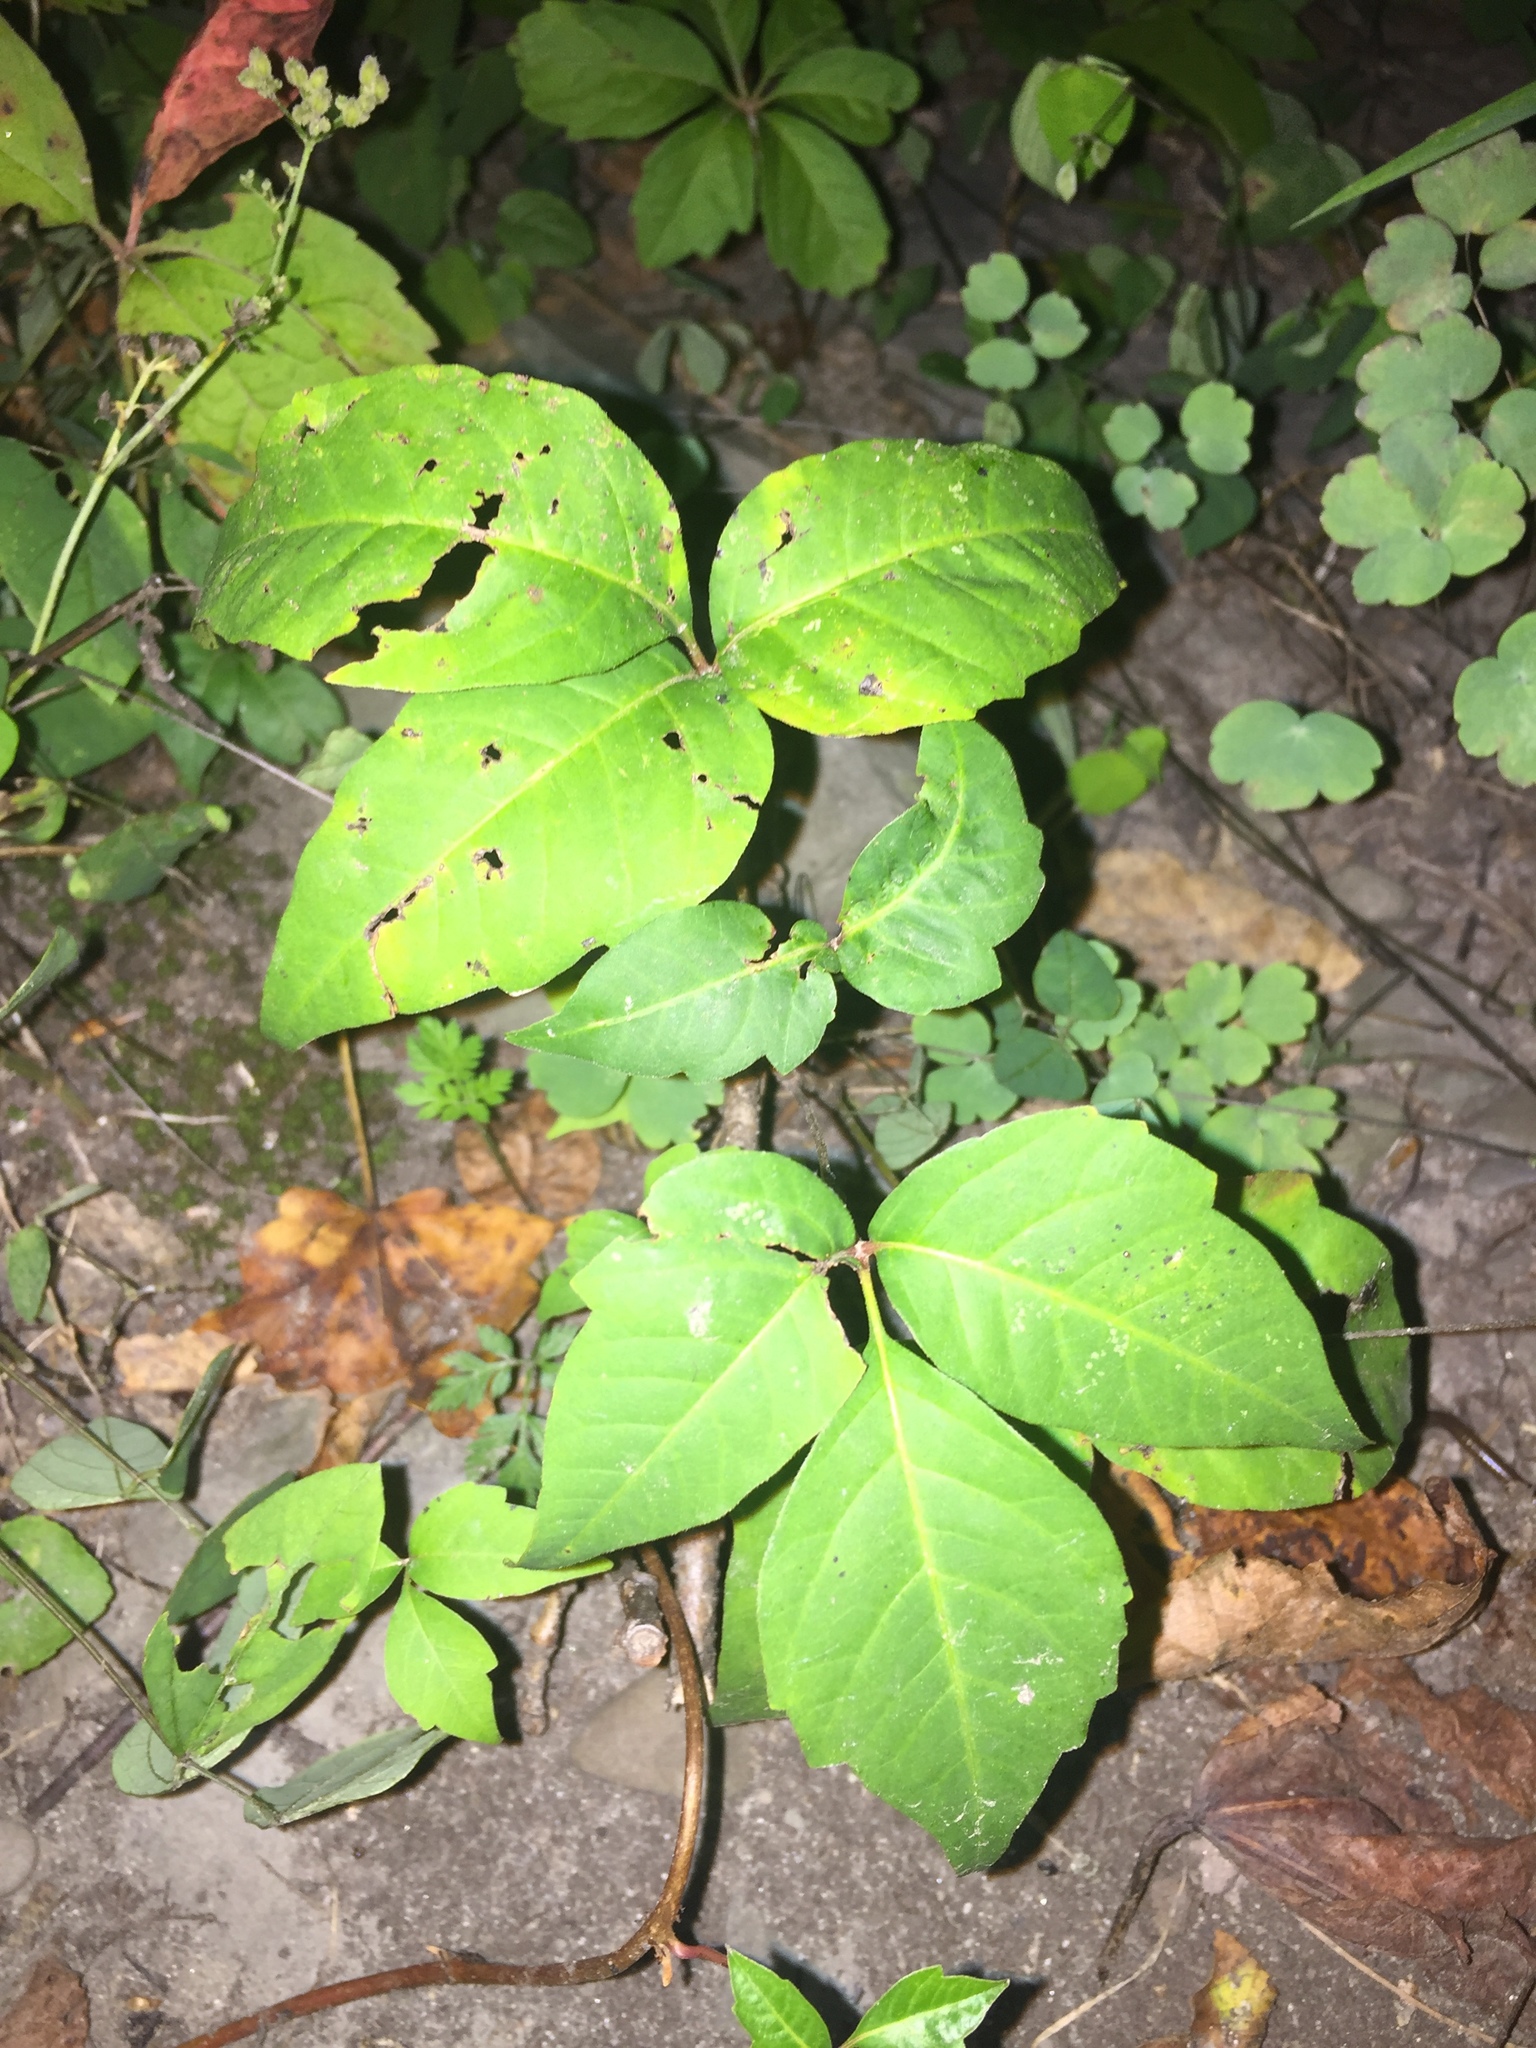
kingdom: Plantae
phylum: Tracheophyta
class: Magnoliopsida
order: Sapindales
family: Anacardiaceae
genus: Toxicodendron
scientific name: Toxicodendron radicans
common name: Poison ivy
